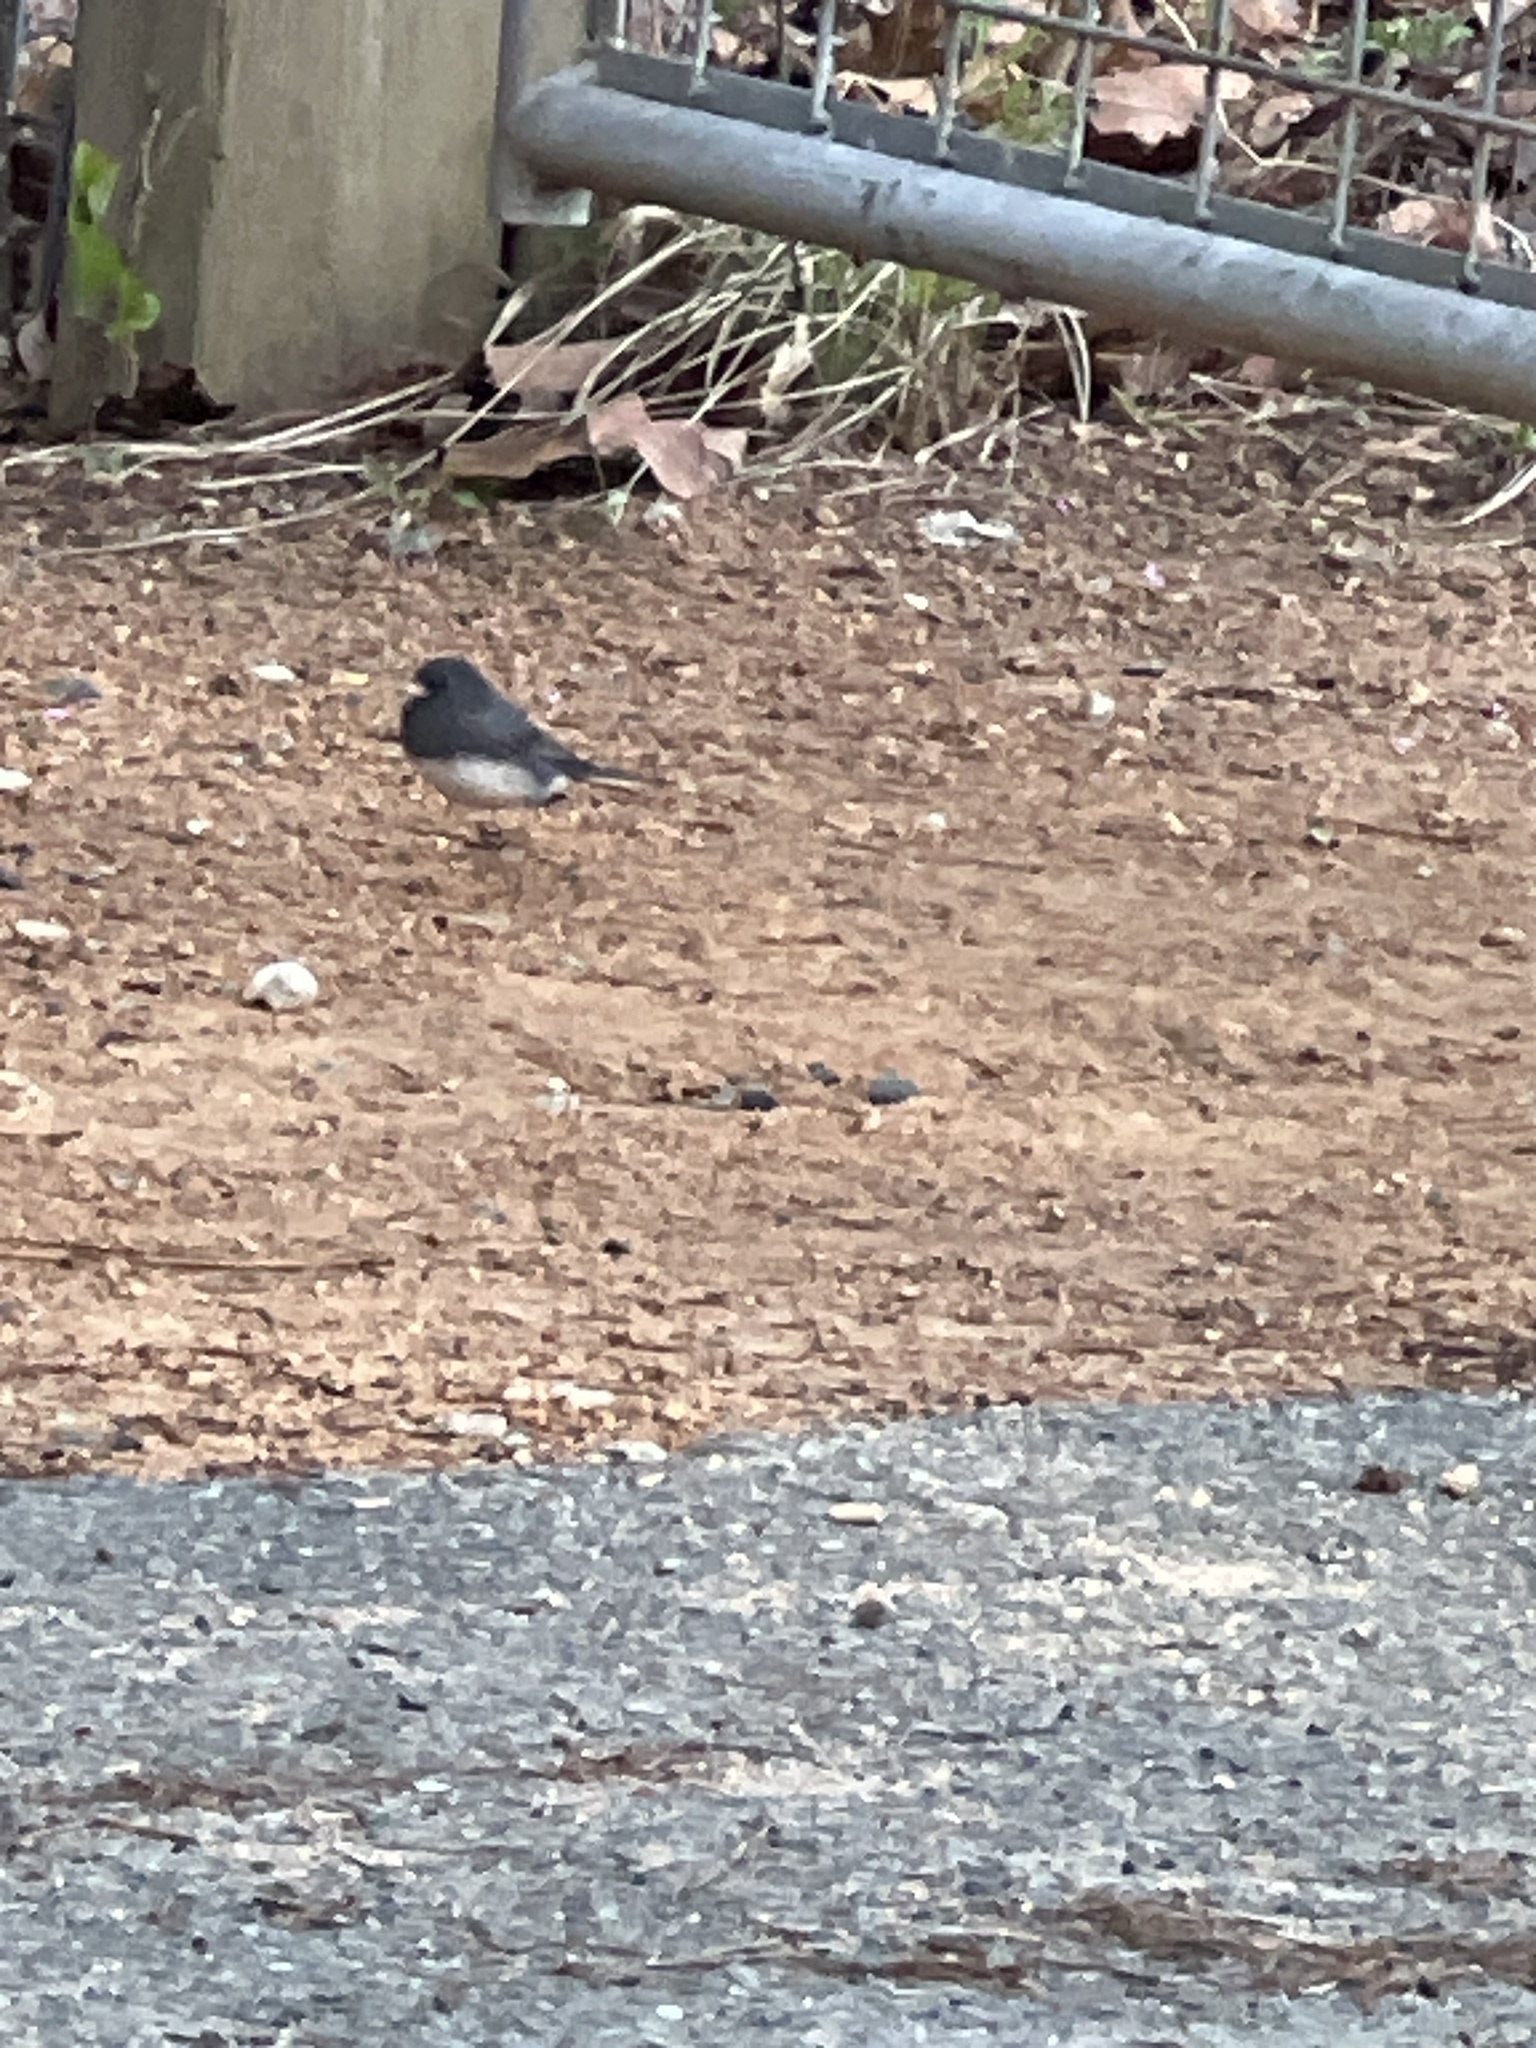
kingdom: Animalia
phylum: Chordata
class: Aves
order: Passeriformes
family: Passerellidae
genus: Junco
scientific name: Junco hyemalis
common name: Dark-eyed junco
